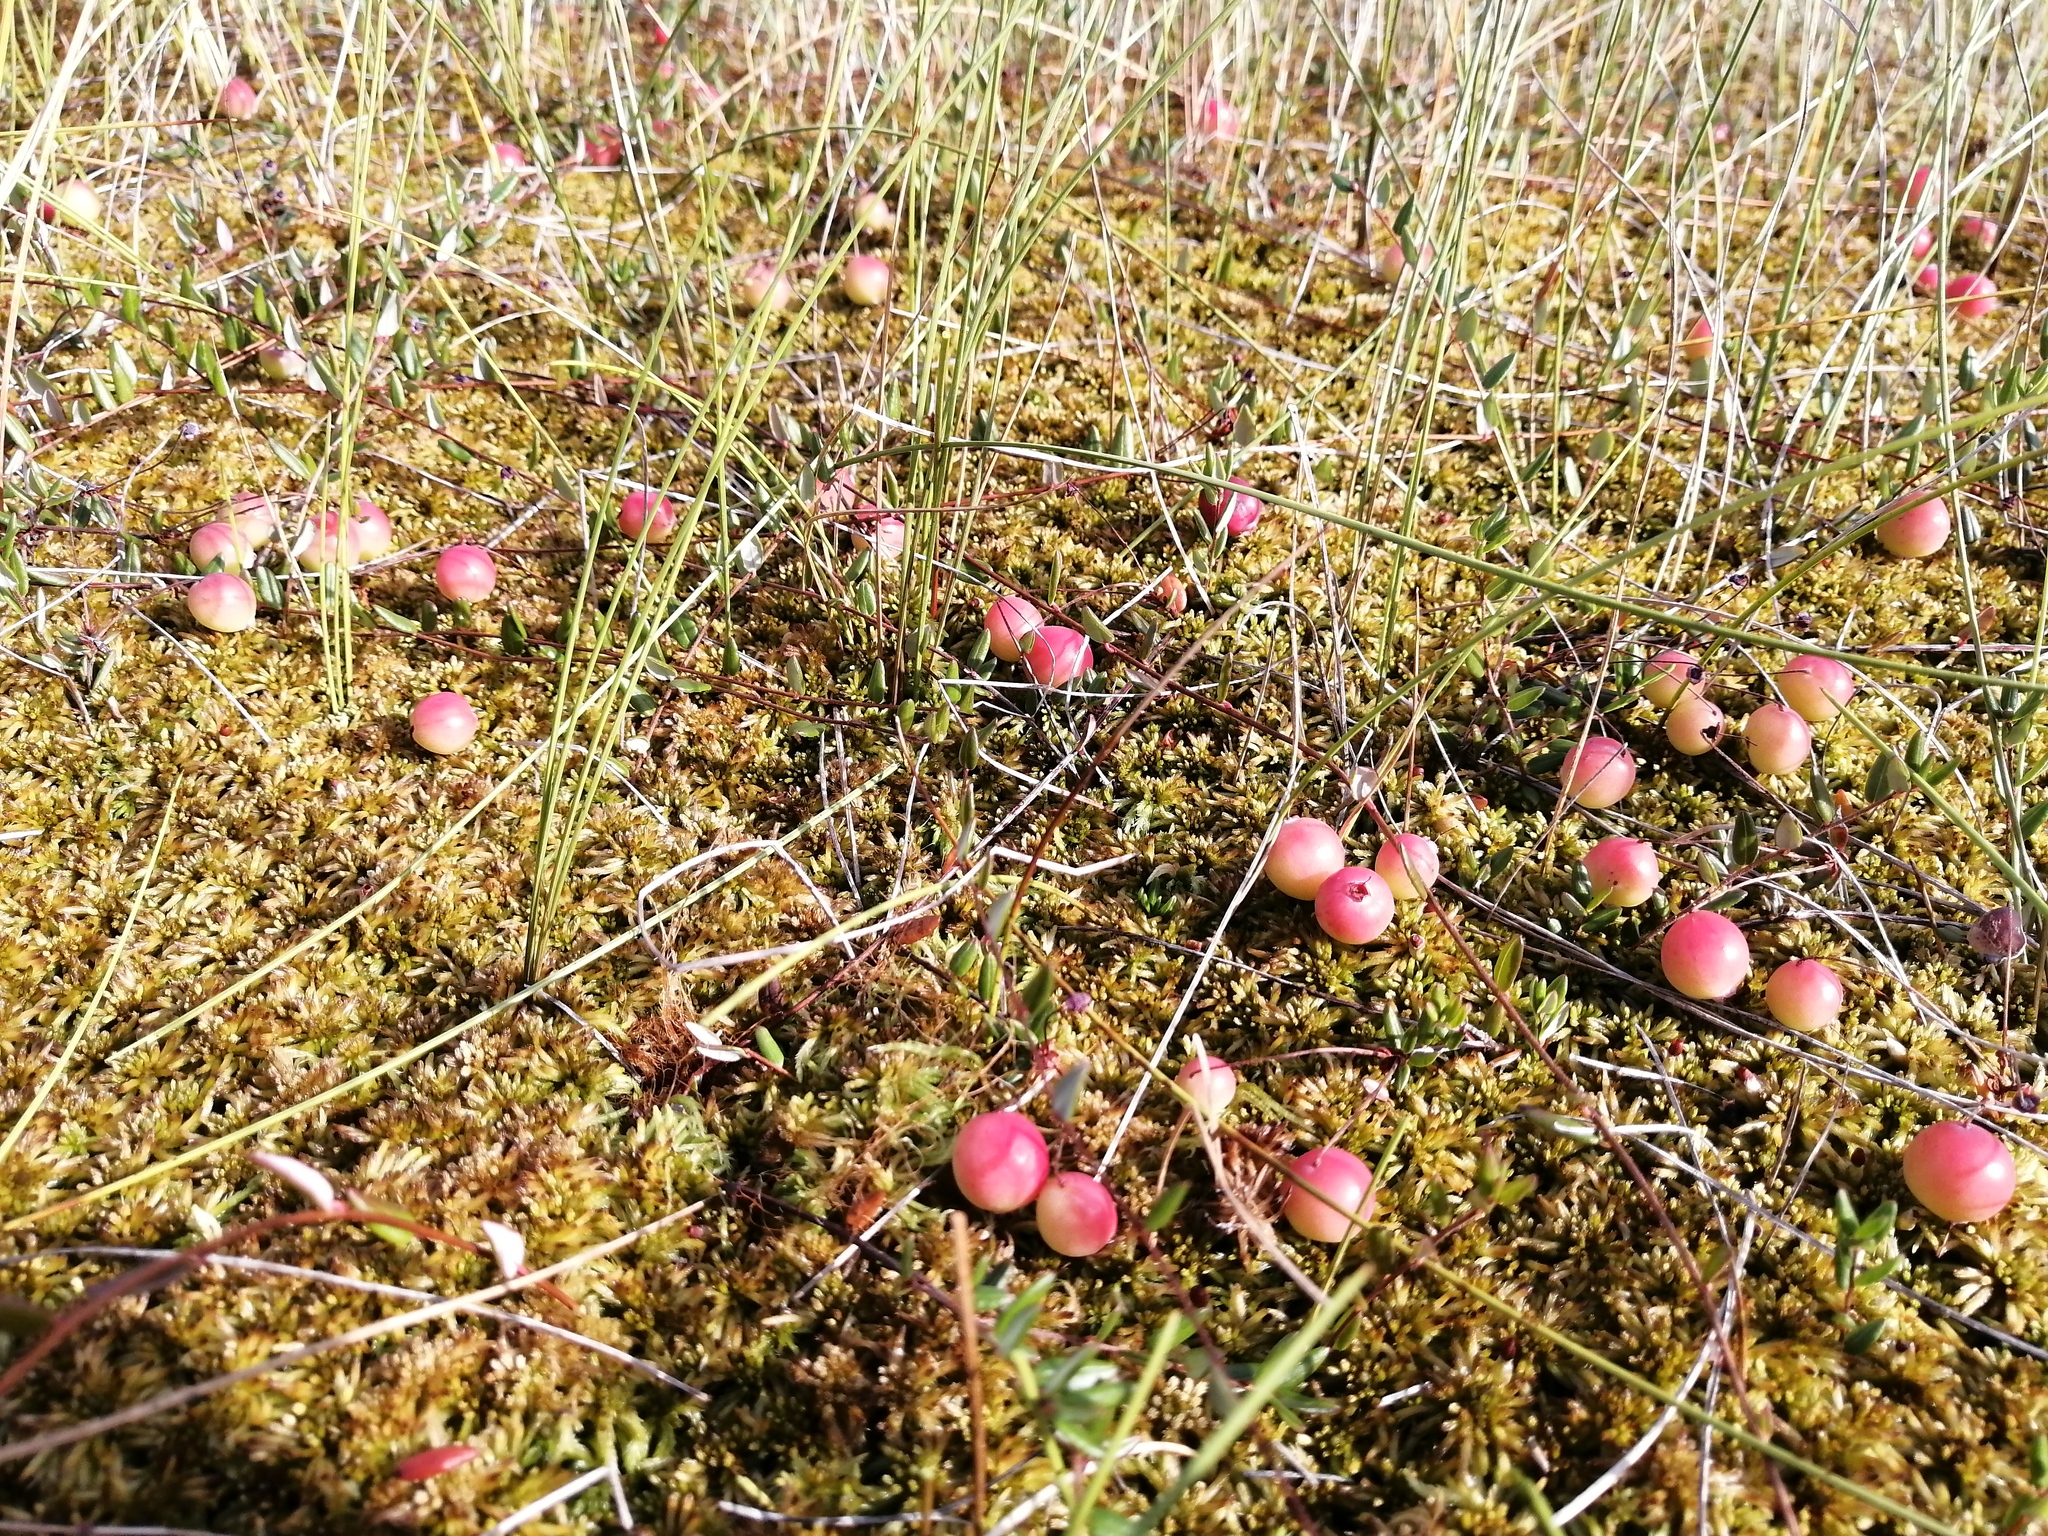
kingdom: Plantae
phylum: Tracheophyta
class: Magnoliopsida
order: Ericales
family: Ericaceae
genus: Vaccinium
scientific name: Vaccinium oxycoccos
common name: Cranberry
